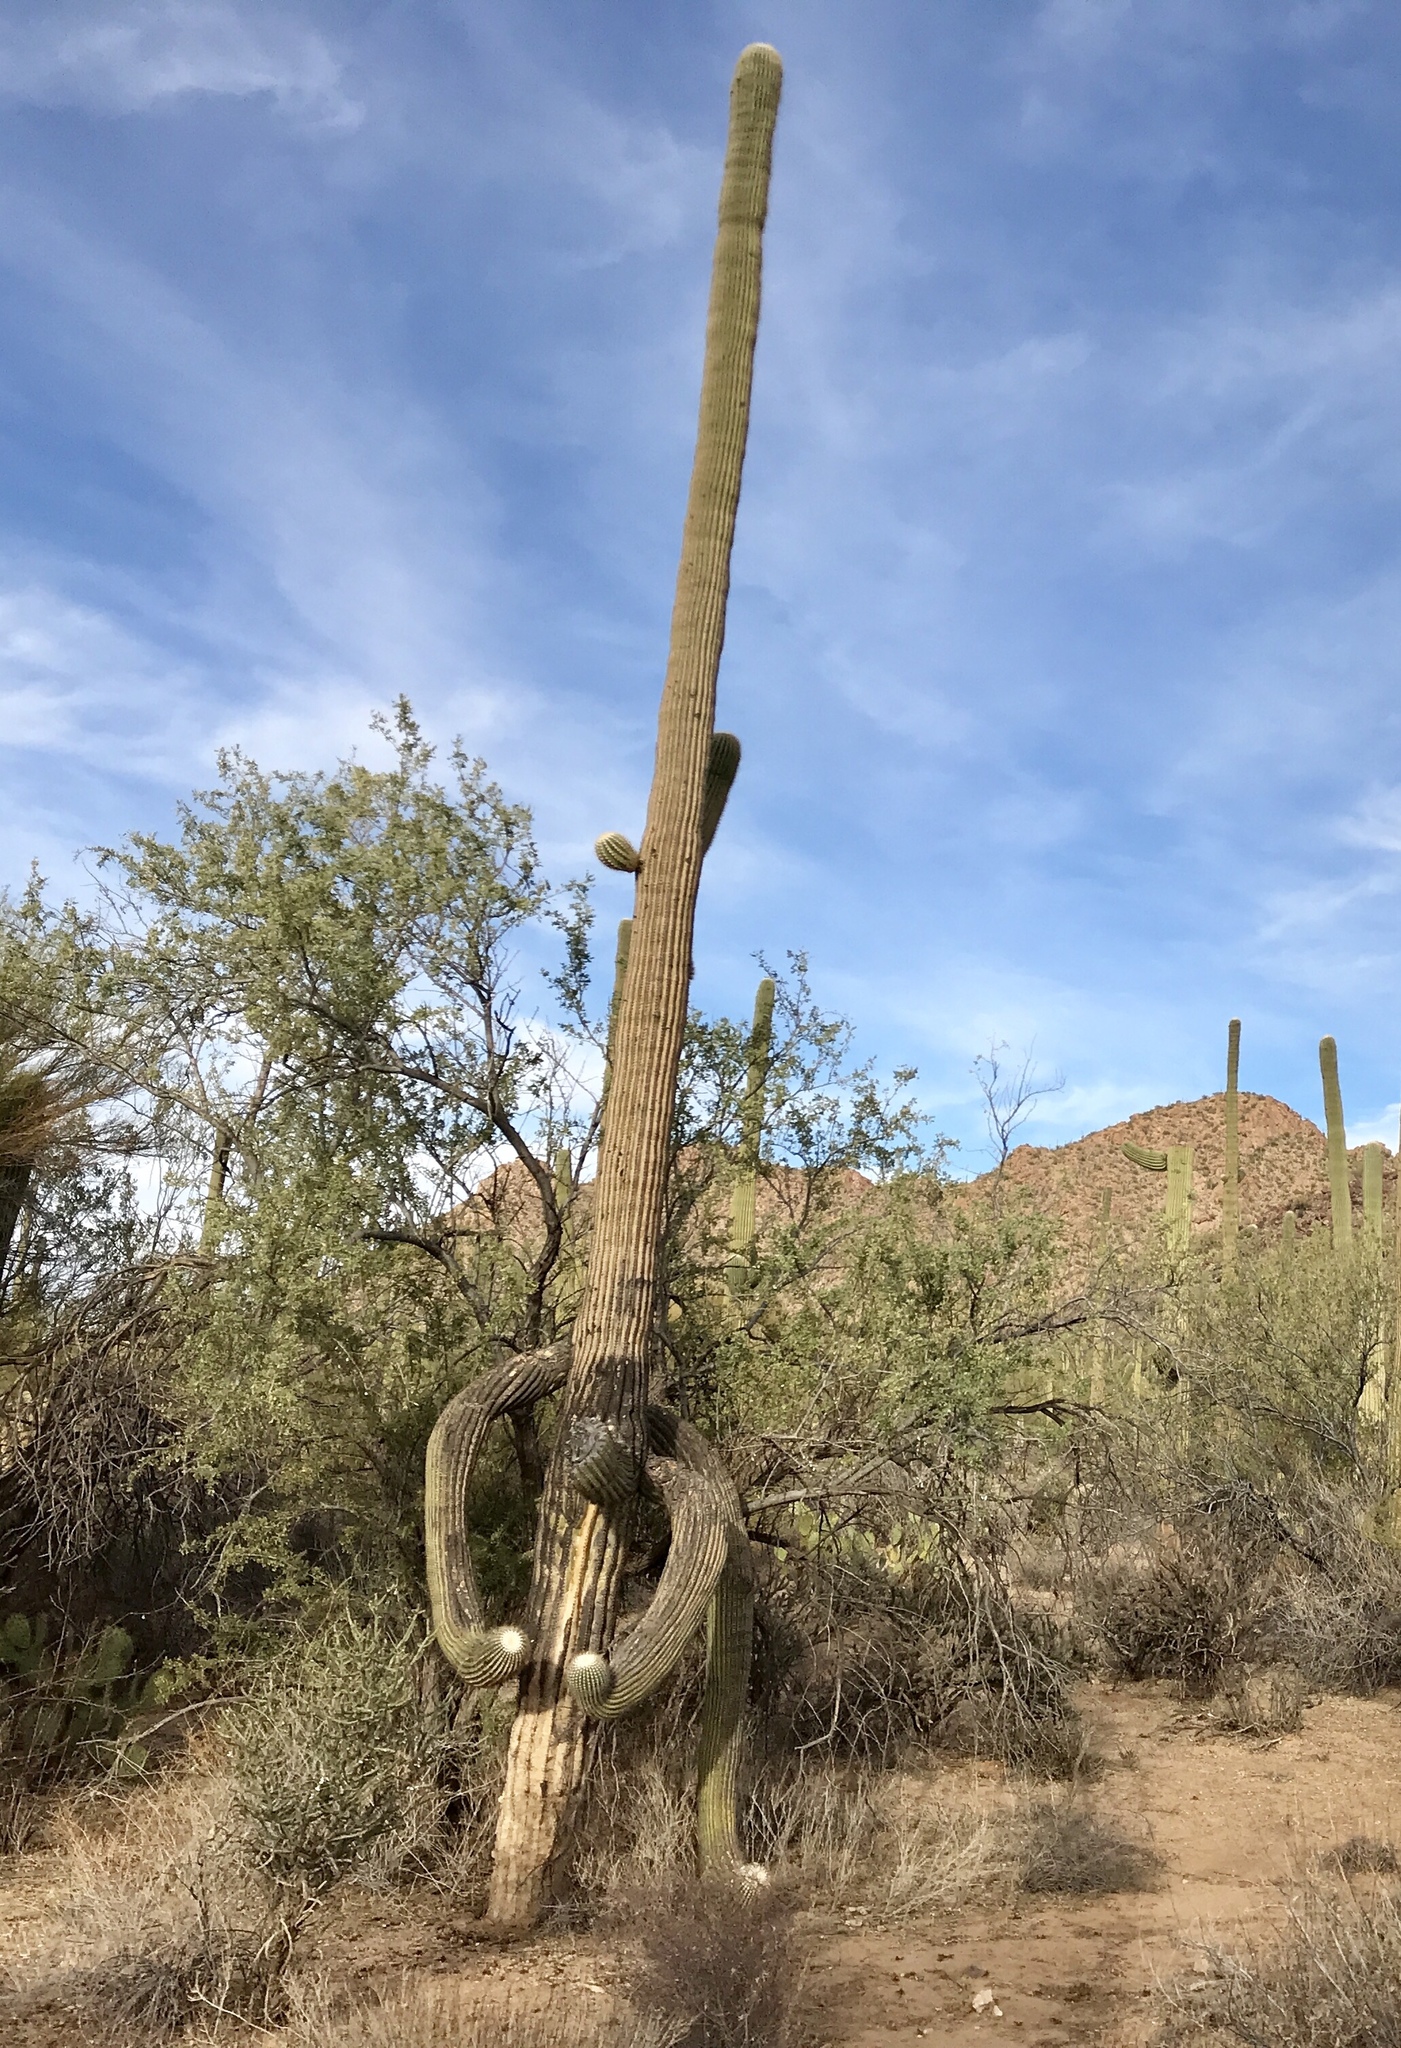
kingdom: Plantae
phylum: Tracheophyta
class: Magnoliopsida
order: Caryophyllales
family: Cactaceae
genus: Carnegiea
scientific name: Carnegiea gigantea
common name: Saguaro
